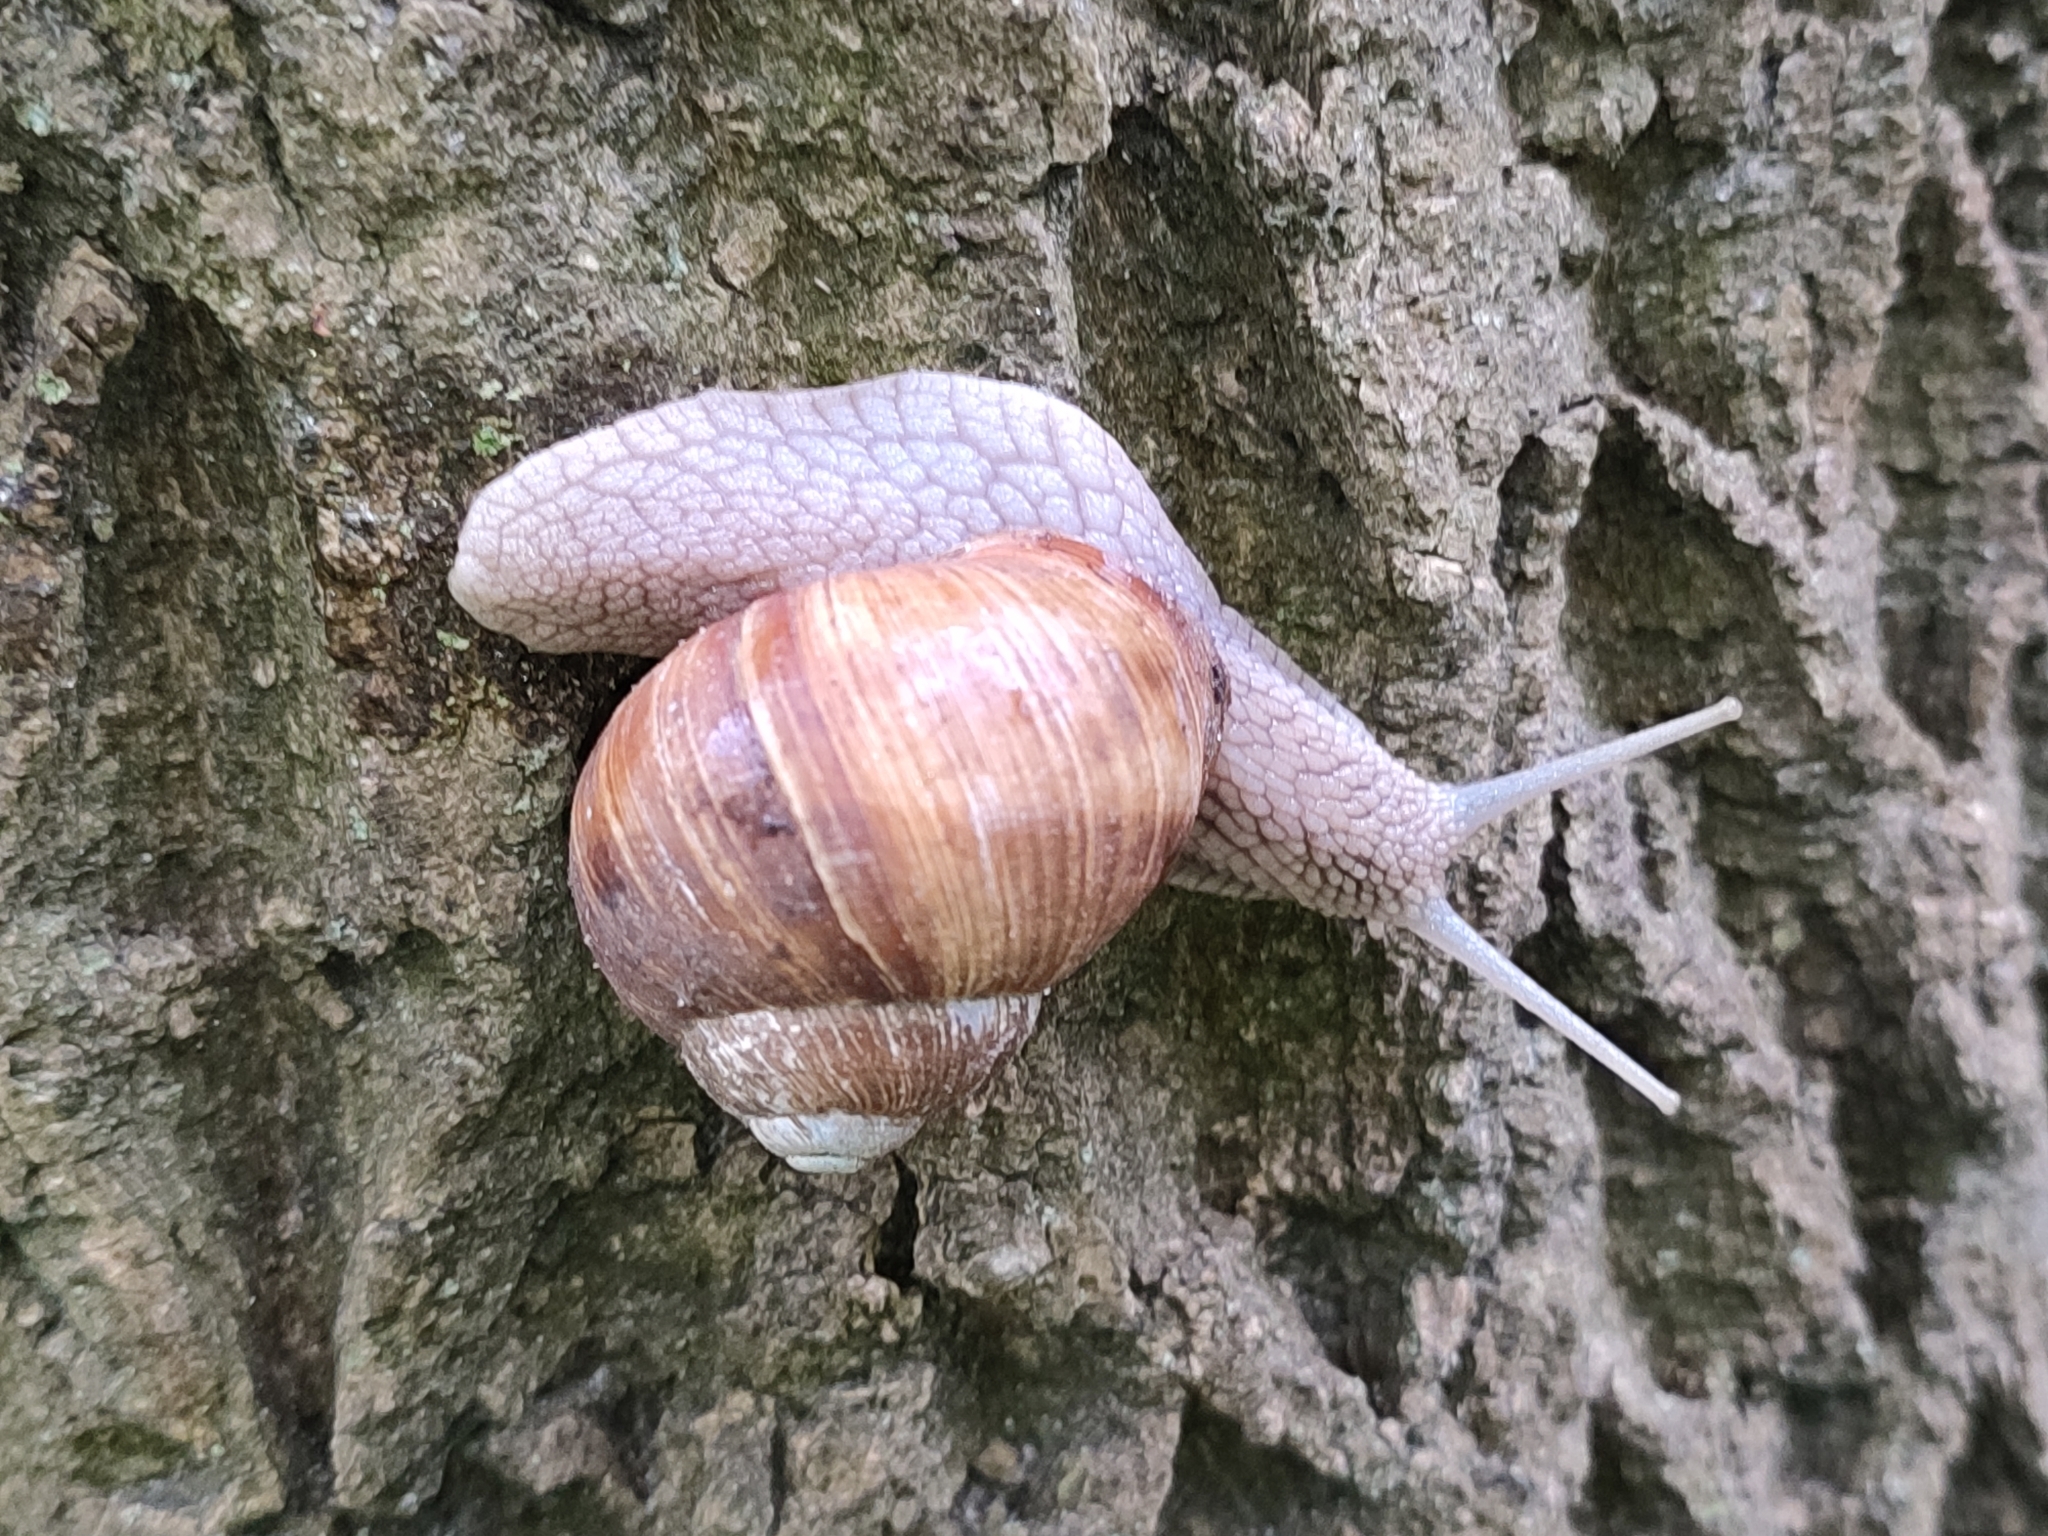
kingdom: Animalia
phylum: Mollusca
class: Gastropoda
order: Stylommatophora
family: Helicidae
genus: Helix
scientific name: Helix pomatia
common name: Roman snail
